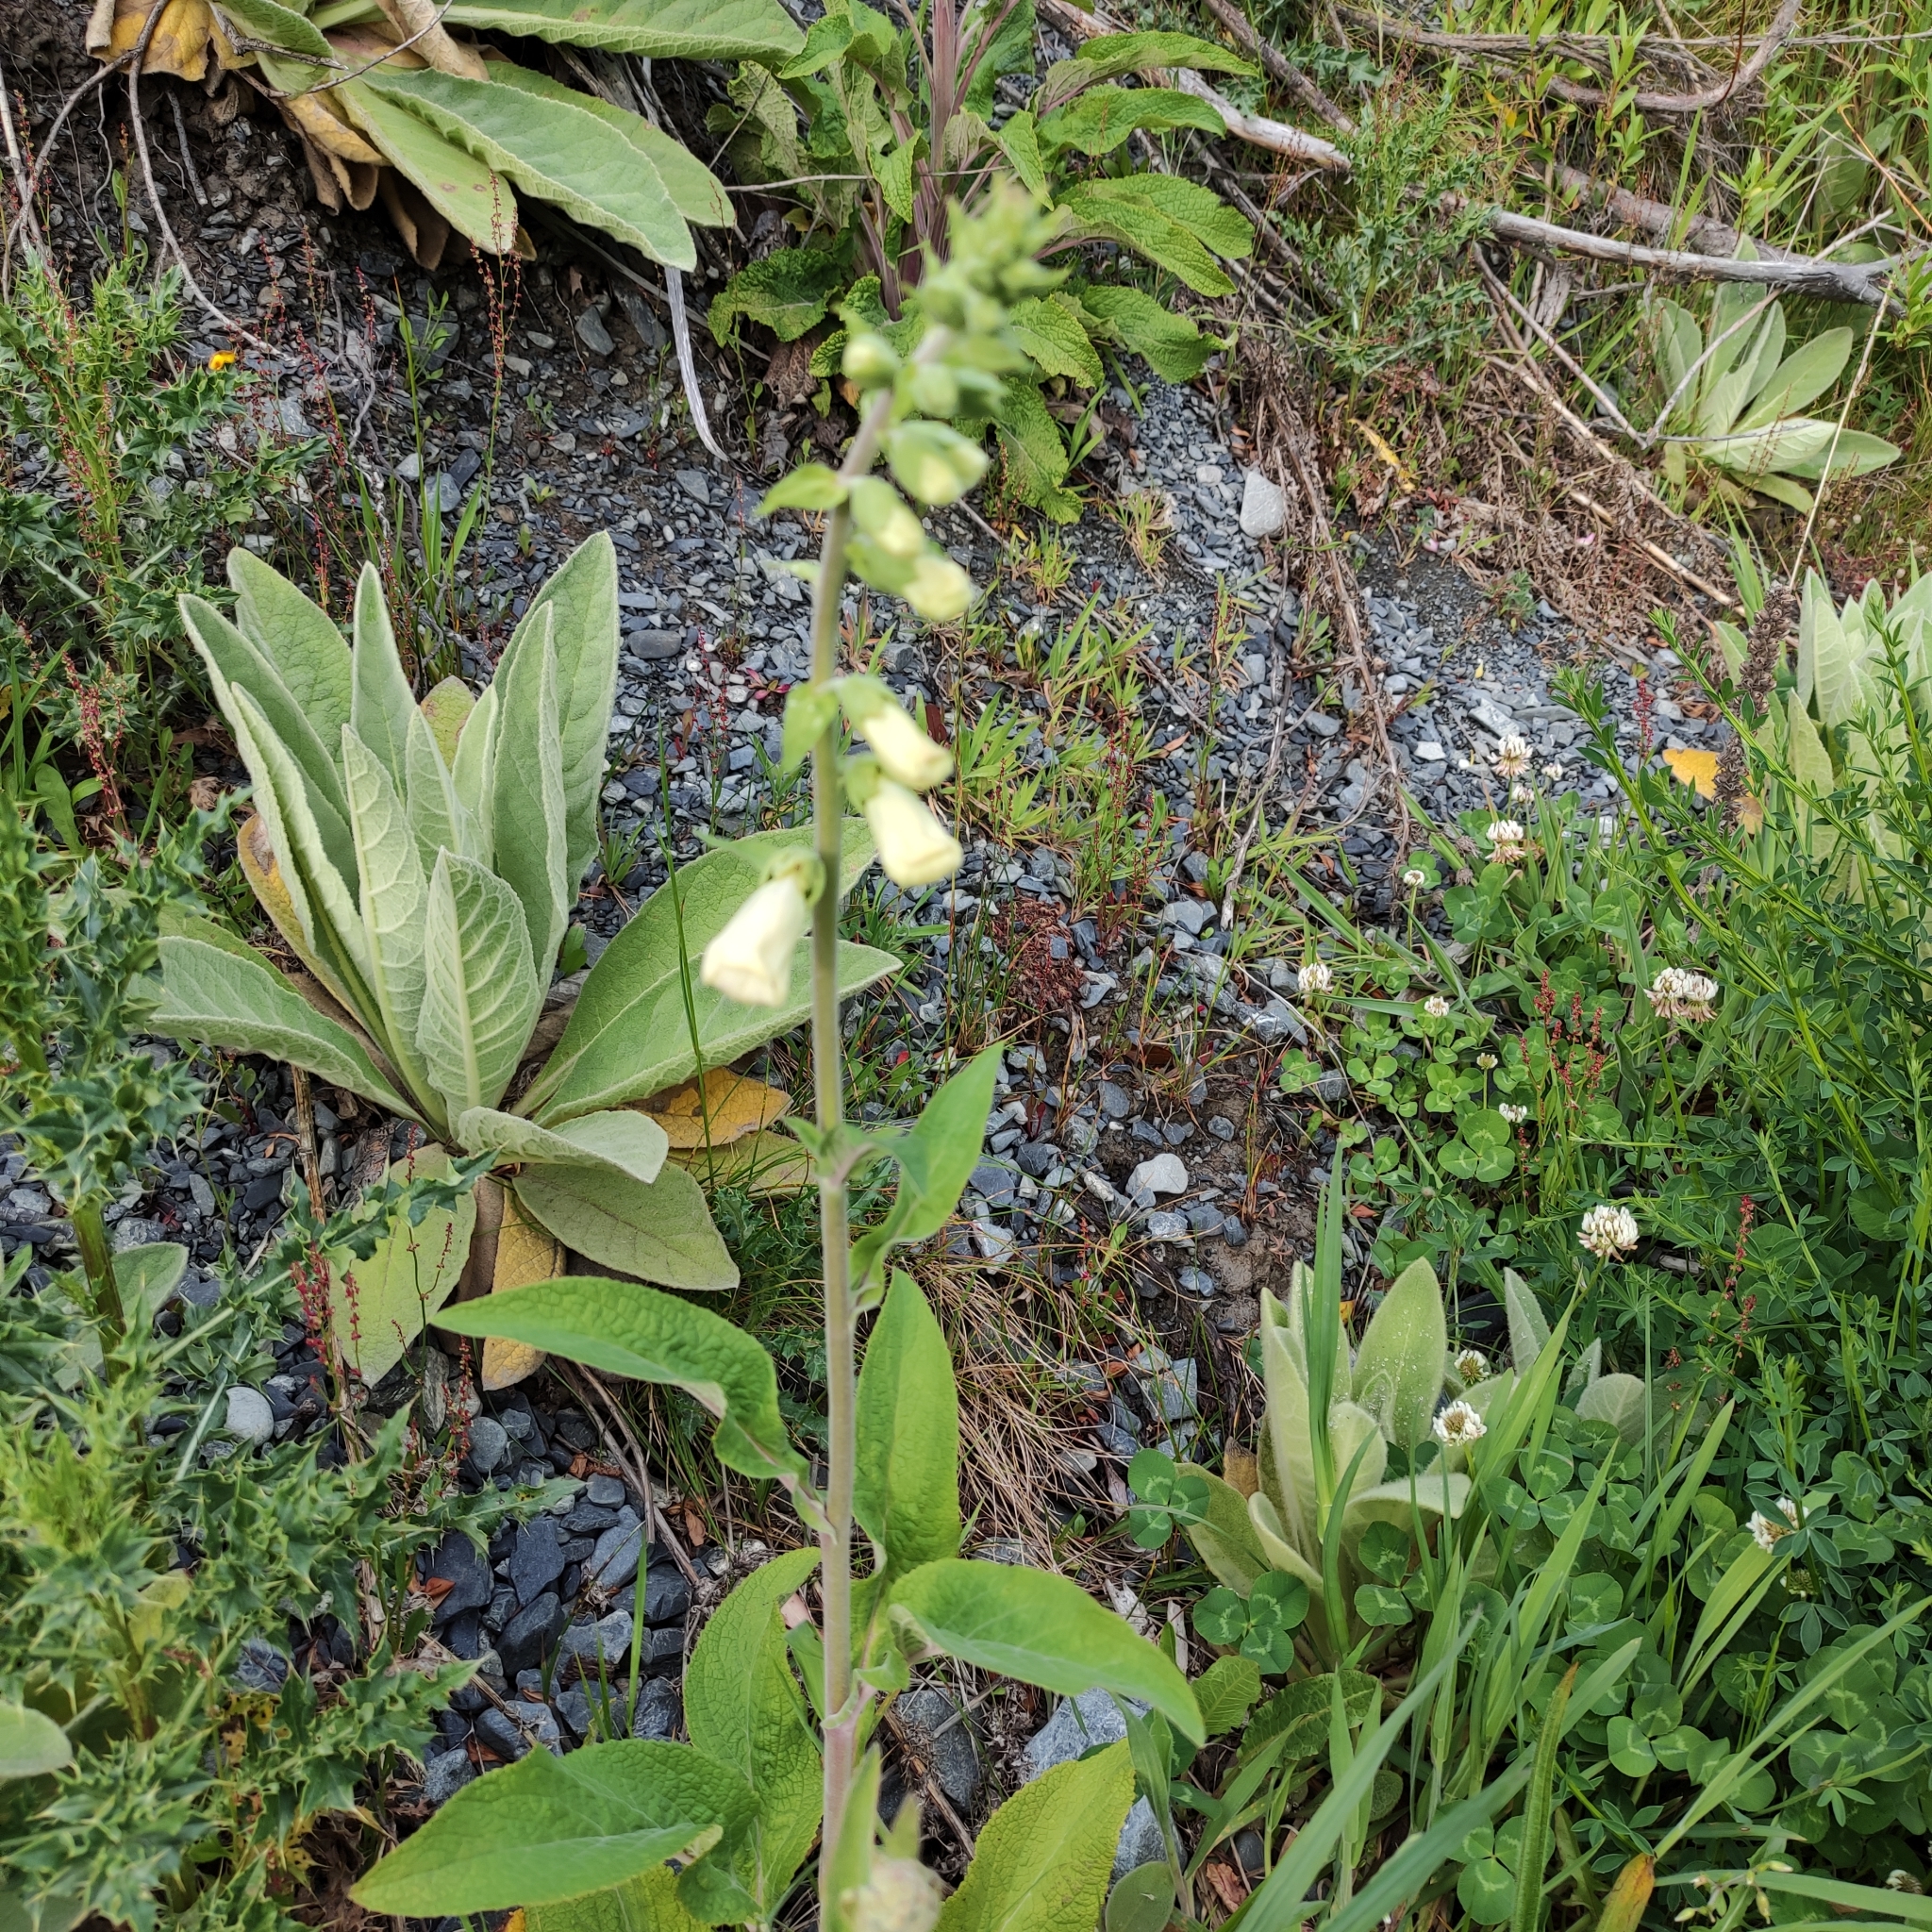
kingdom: Plantae
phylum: Tracheophyta
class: Magnoliopsida
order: Lamiales
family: Plantaginaceae
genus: Digitalis
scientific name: Digitalis purpurea
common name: Foxglove
